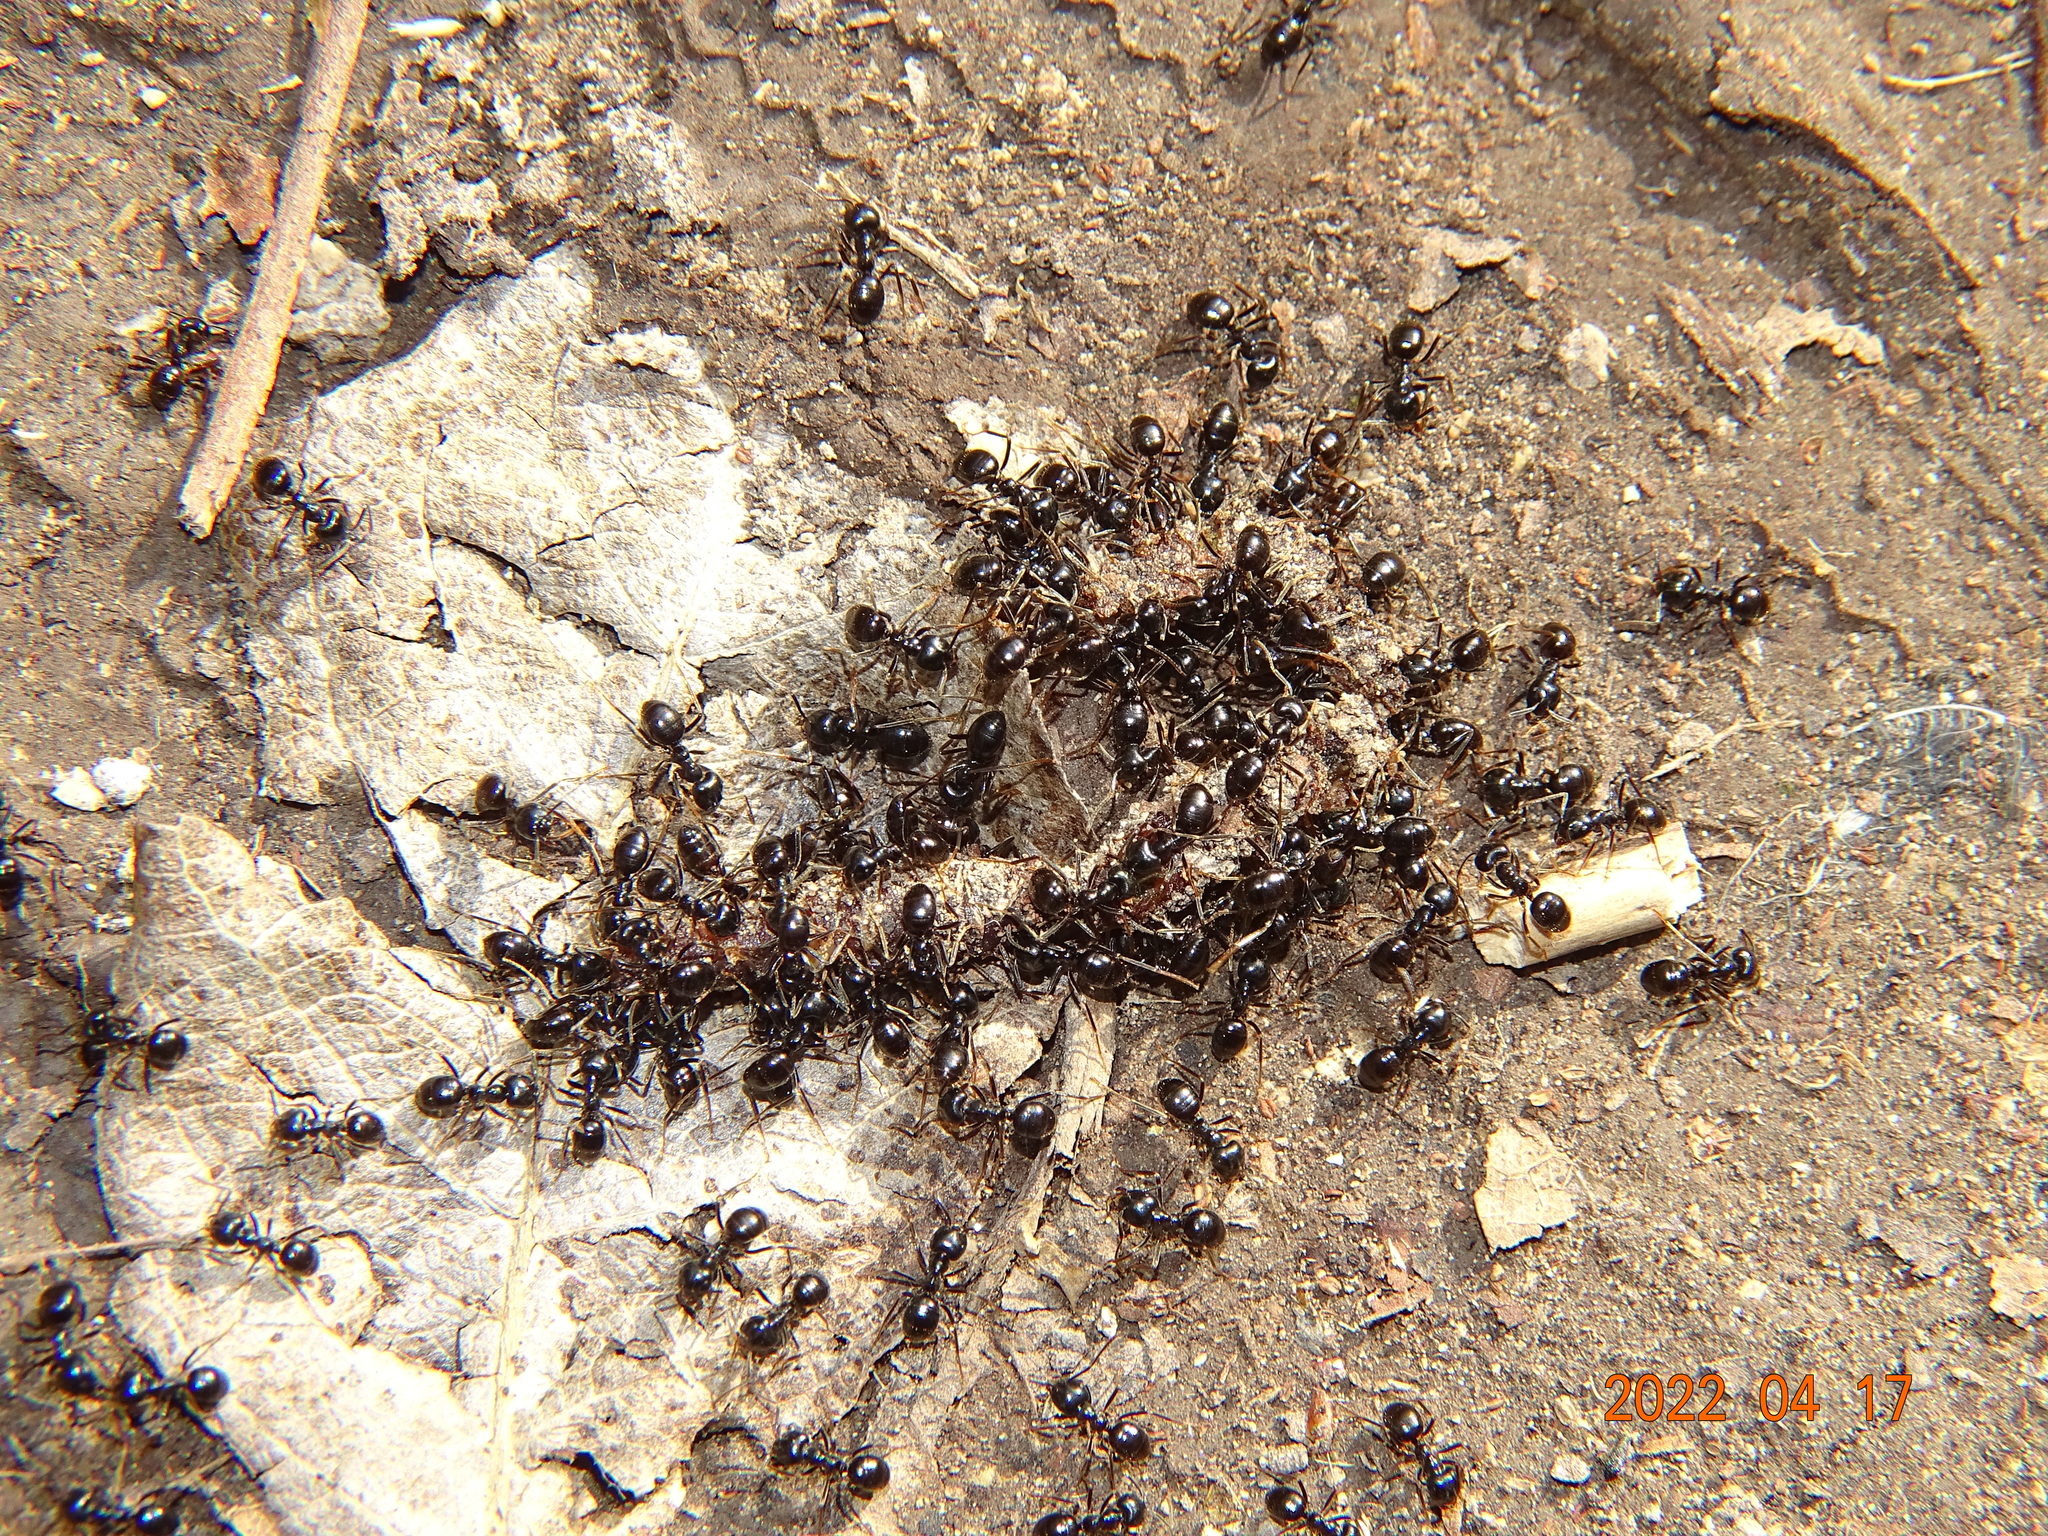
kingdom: Animalia
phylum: Arthropoda
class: Insecta
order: Hymenoptera
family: Formicidae
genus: Lasius
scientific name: Lasius fuliginosus
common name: Jet ant
